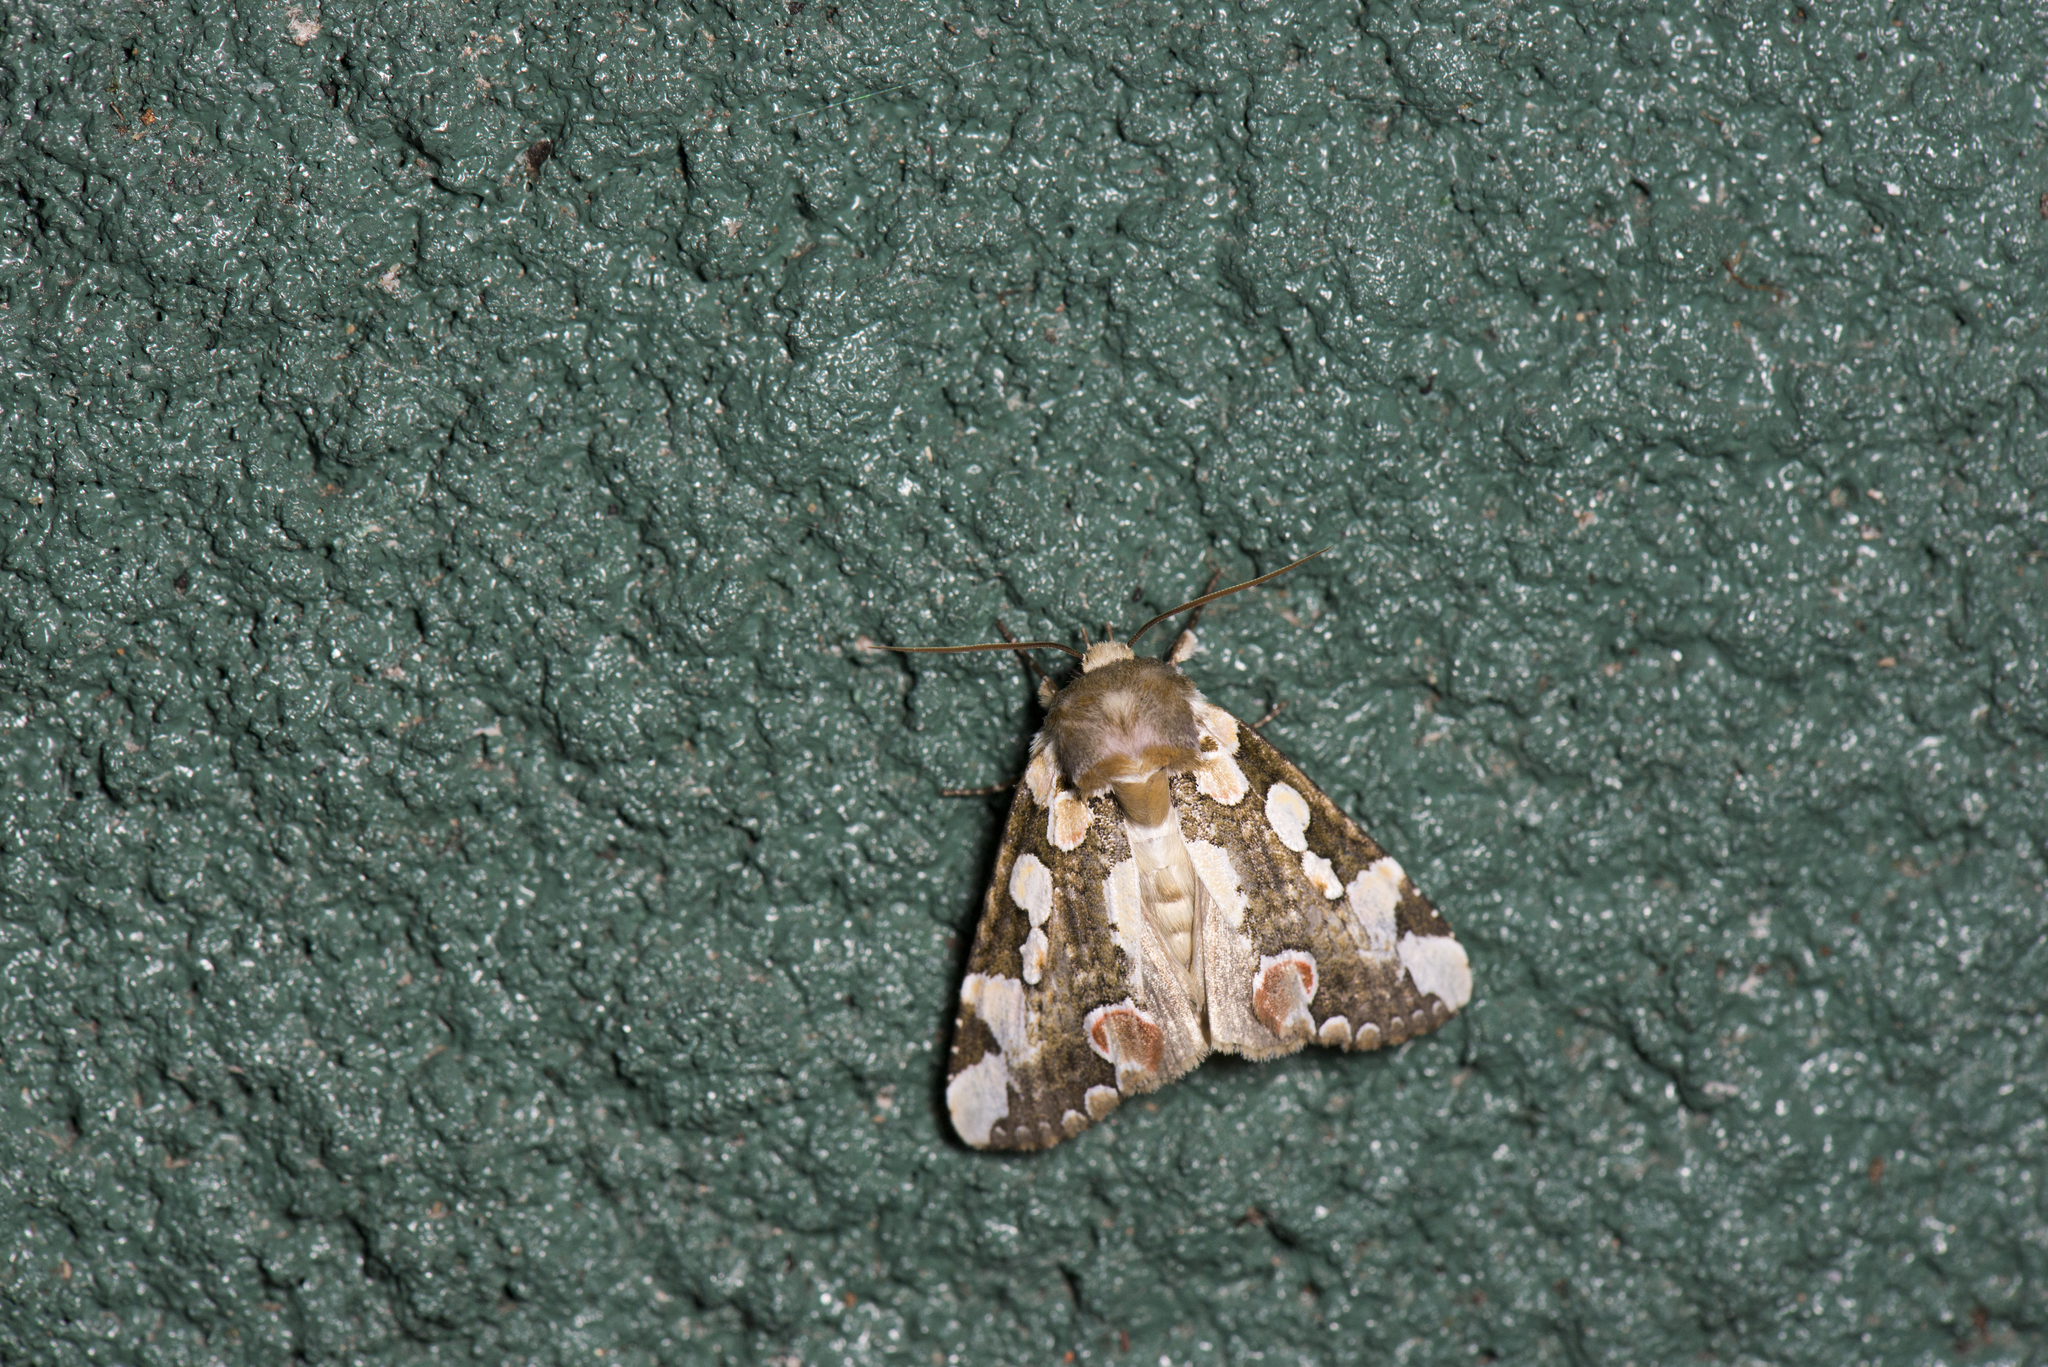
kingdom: Animalia
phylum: Arthropoda
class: Insecta
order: Lepidoptera
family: Drepanidae
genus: Horithyatira
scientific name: Horithyatira takamukui
